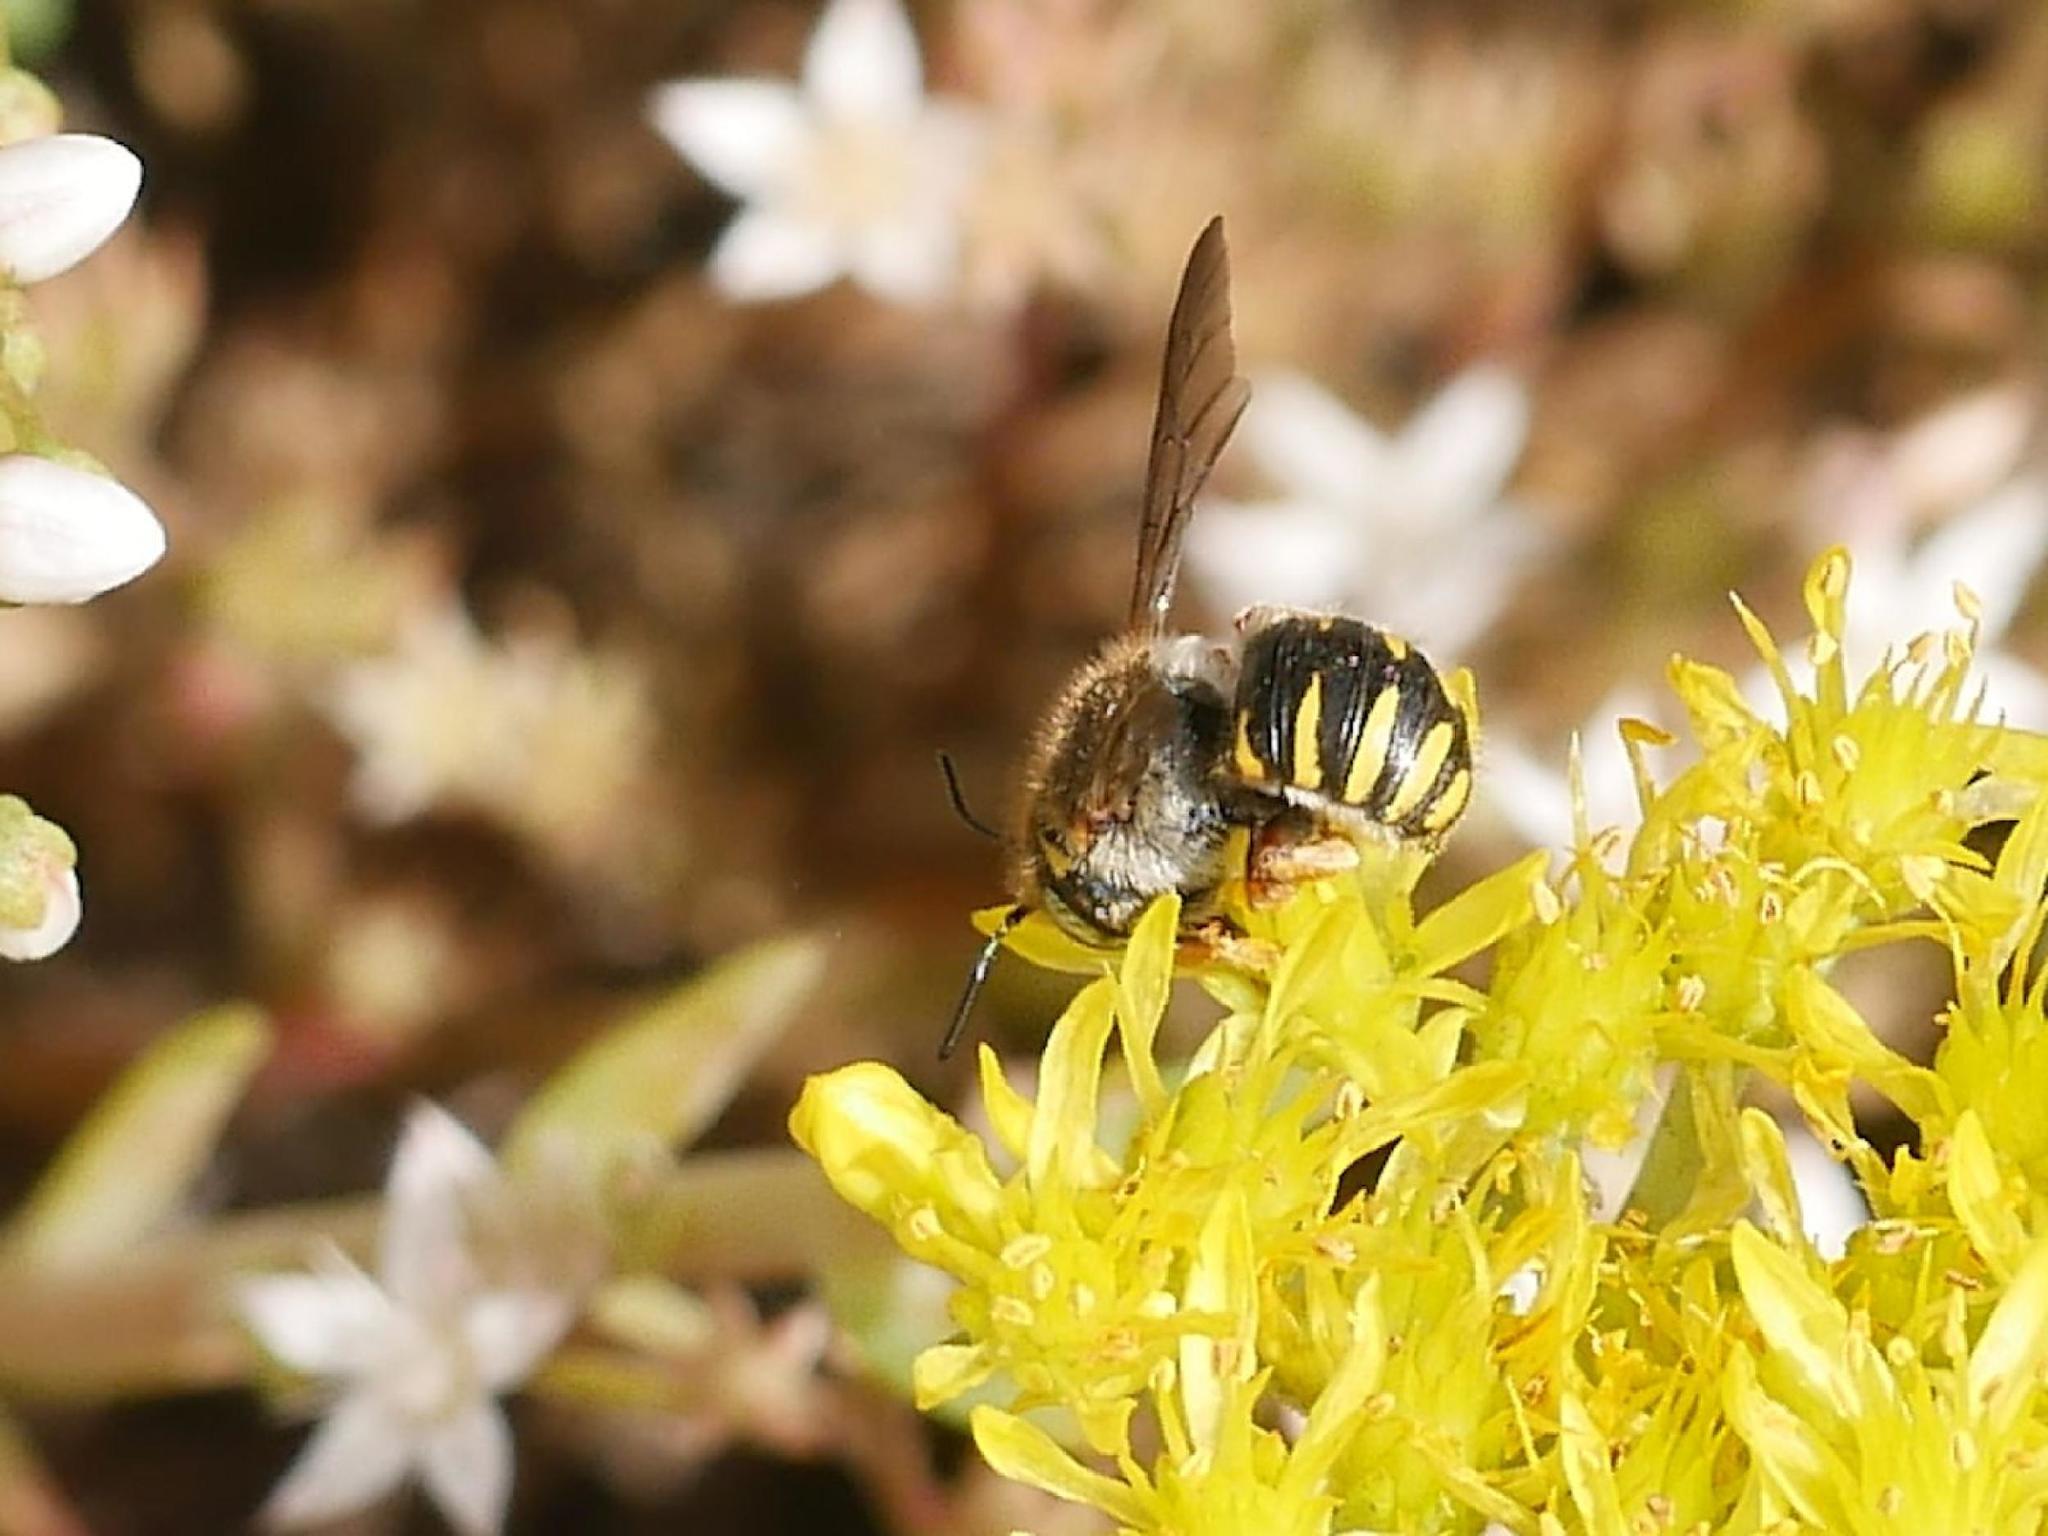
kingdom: Animalia
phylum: Arthropoda
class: Insecta
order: Hymenoptera
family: Megachilidae
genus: Anthidium
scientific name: Anthidium oblongatum
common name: Oblong wool carder bee
